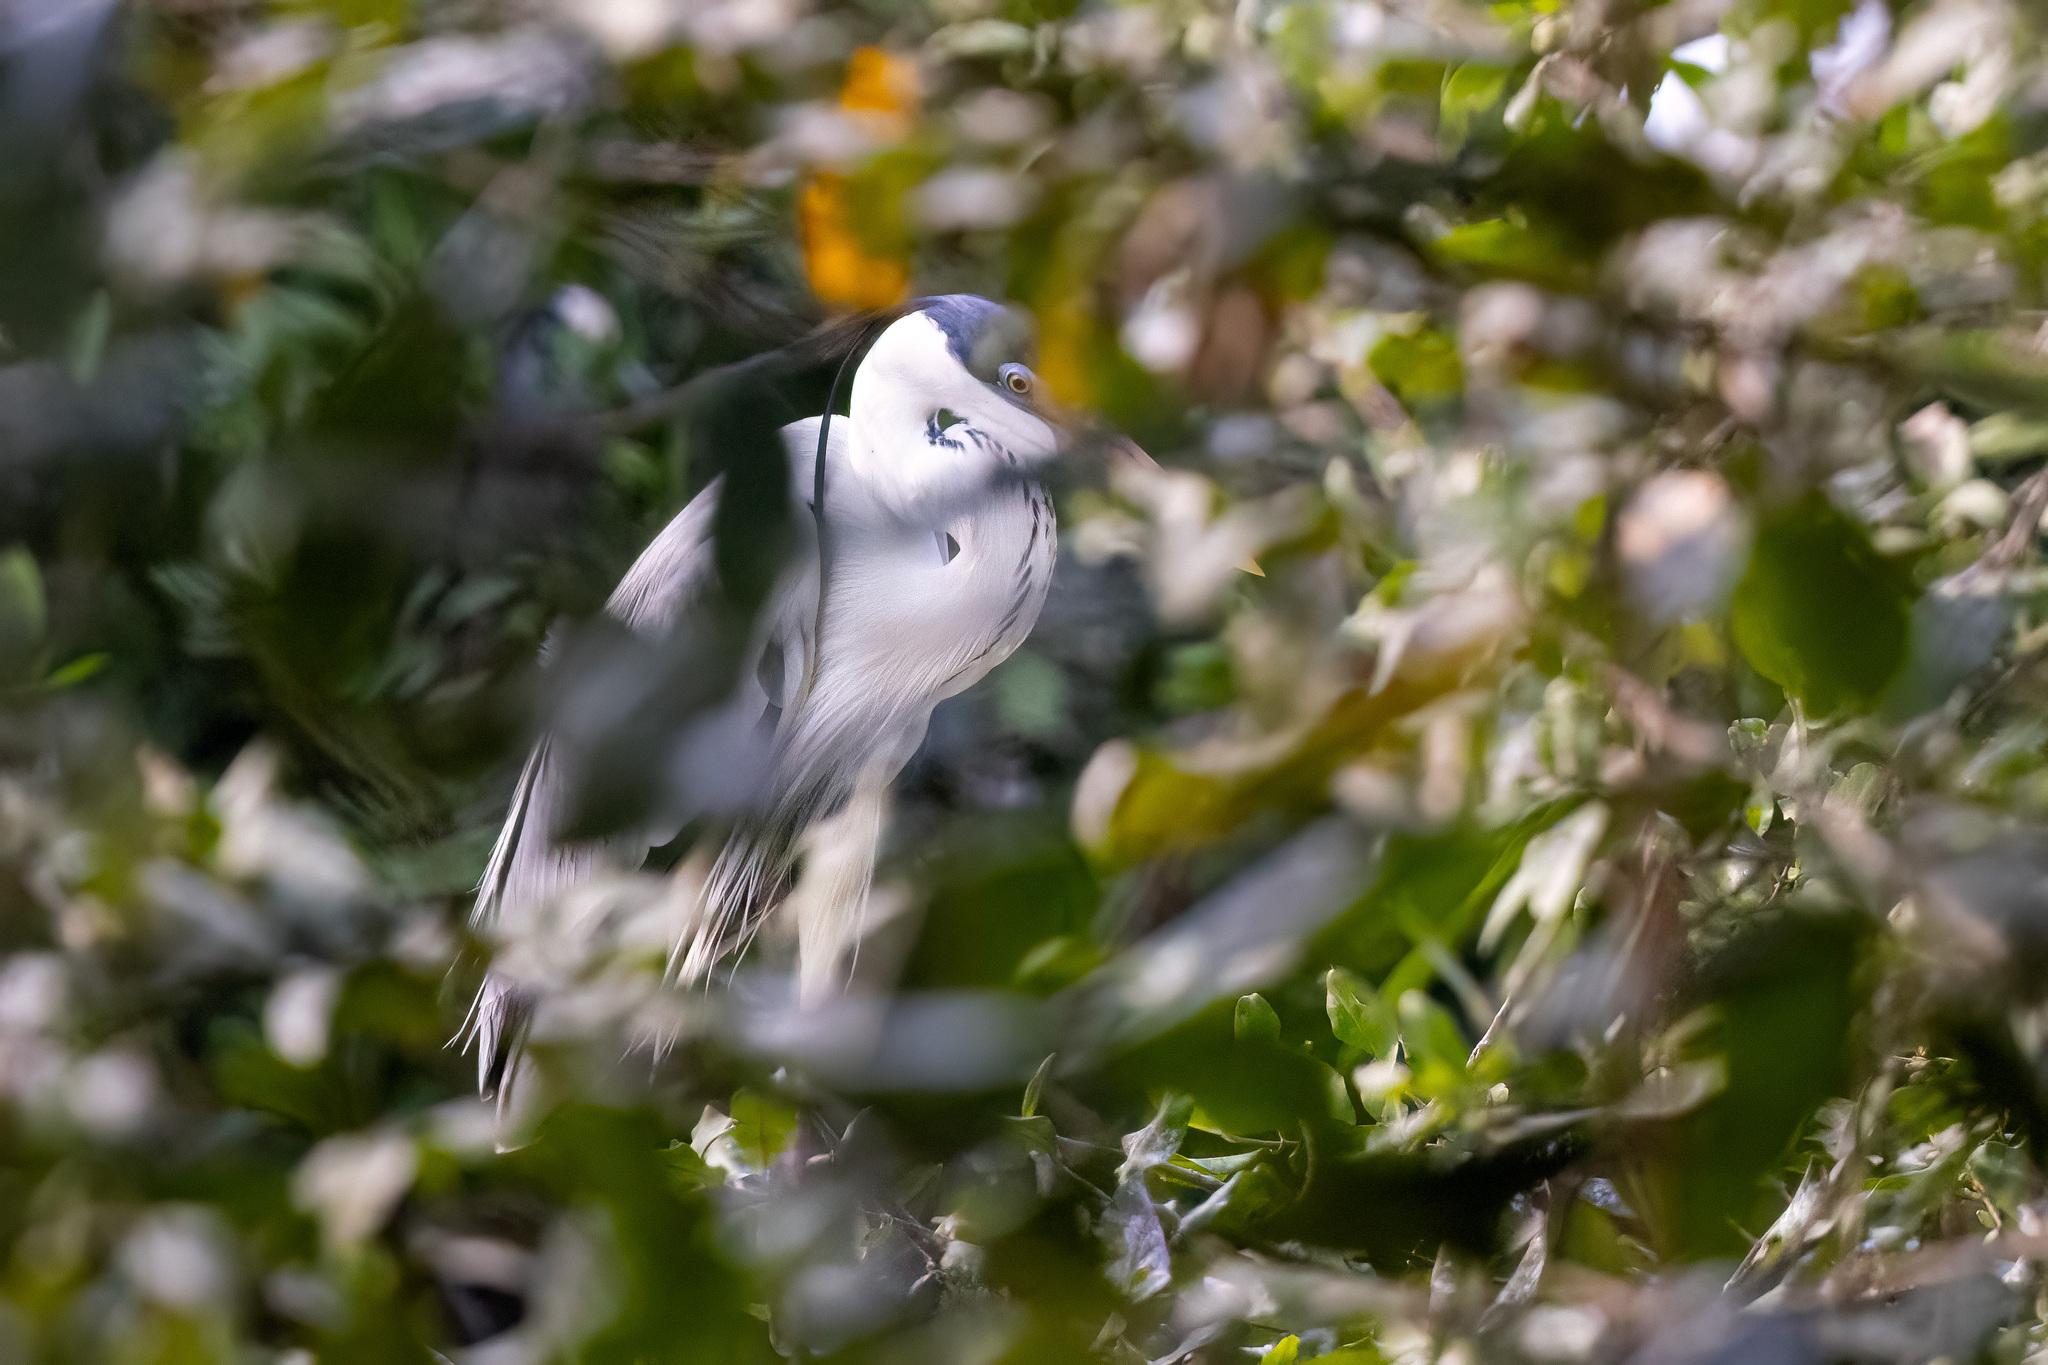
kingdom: Animalia
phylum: Chordata
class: Aves
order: Pelecaniformes
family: Ardeidae
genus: Ardea
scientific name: Ardea cocoi
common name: Cocoi heron
